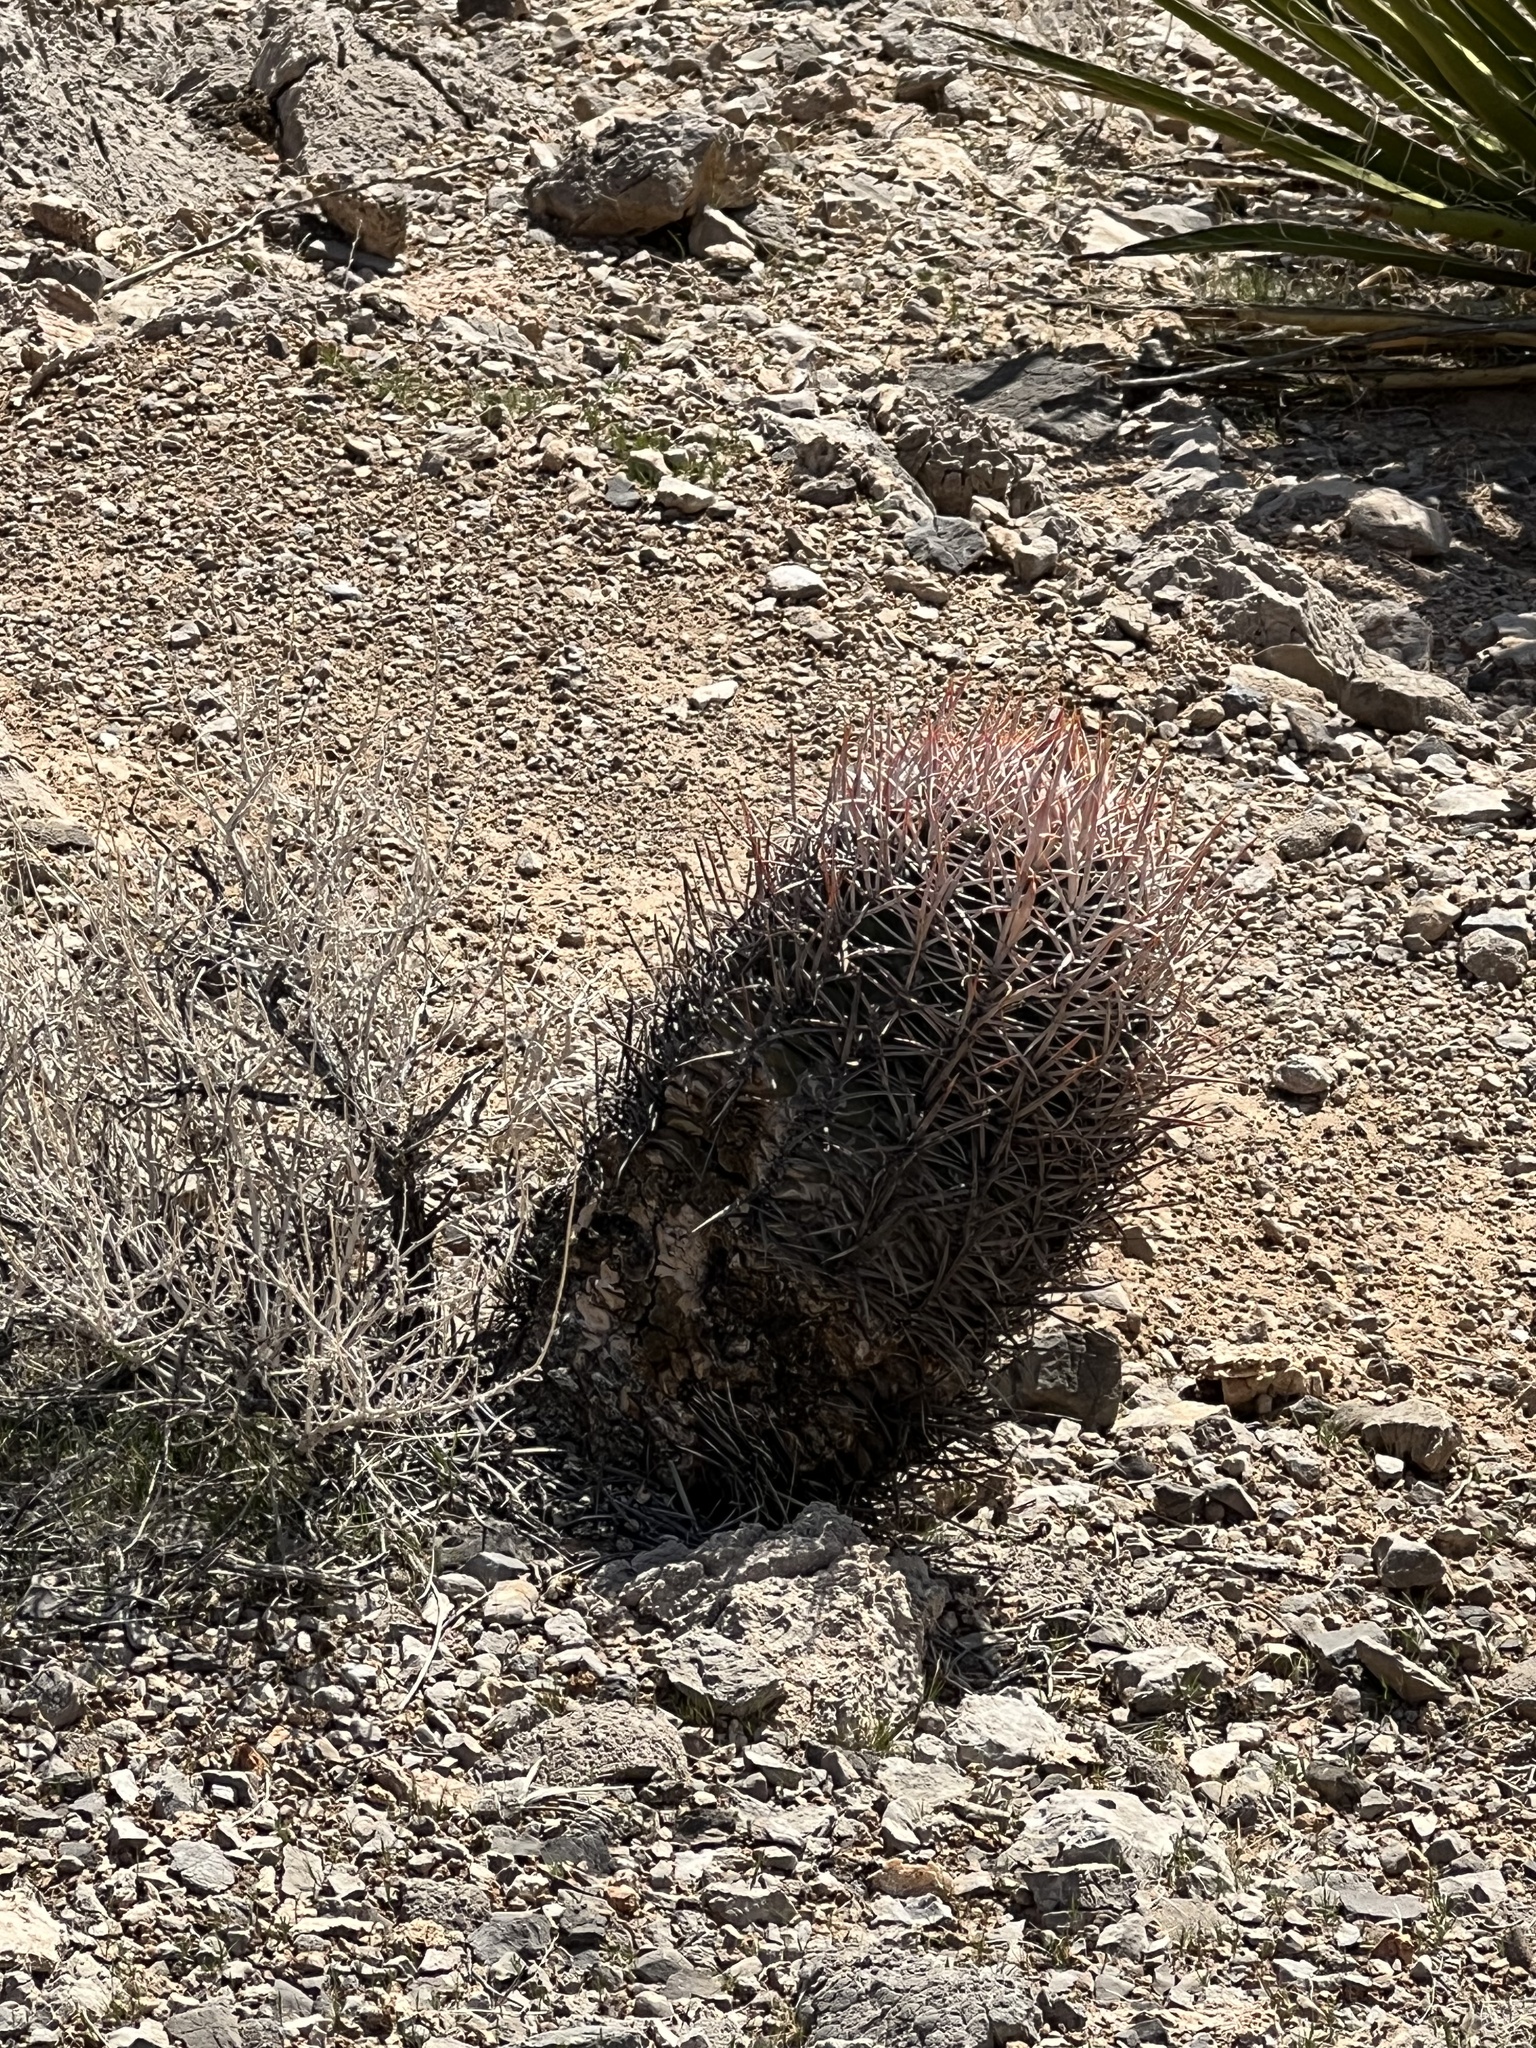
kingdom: Plantae
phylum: Tracheophyta
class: Magnoliopsida
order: Caryophyllales
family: Cactaceae
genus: Echinocactus
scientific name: Echinocactus polycephalus
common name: Cottontop cactus
